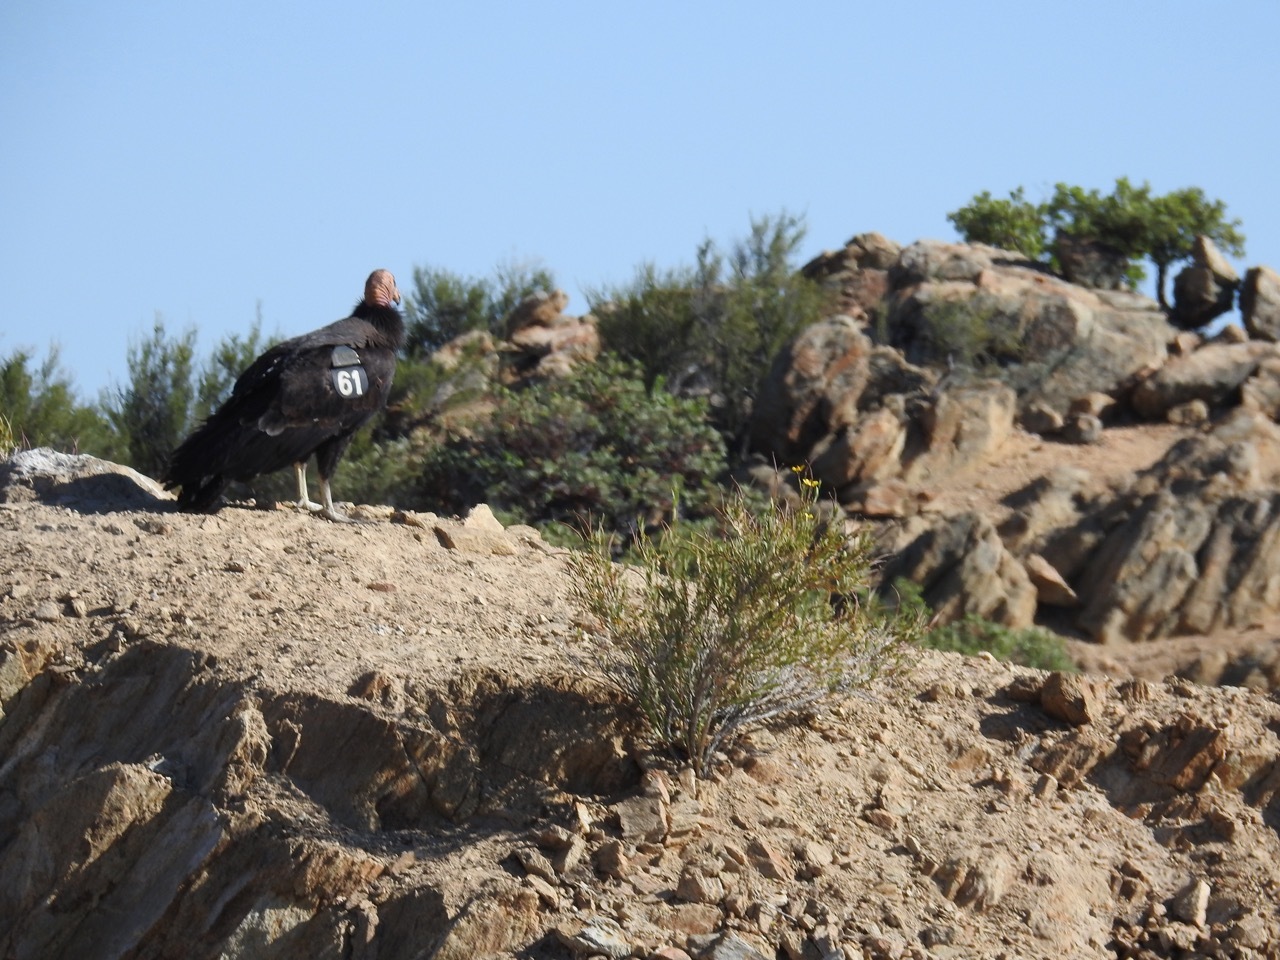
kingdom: Animalia
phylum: Chordata
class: Aves
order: Accipitriformes
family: Cathartidae
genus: Gymnogyps
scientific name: Gymnogyps californianus
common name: California condor
